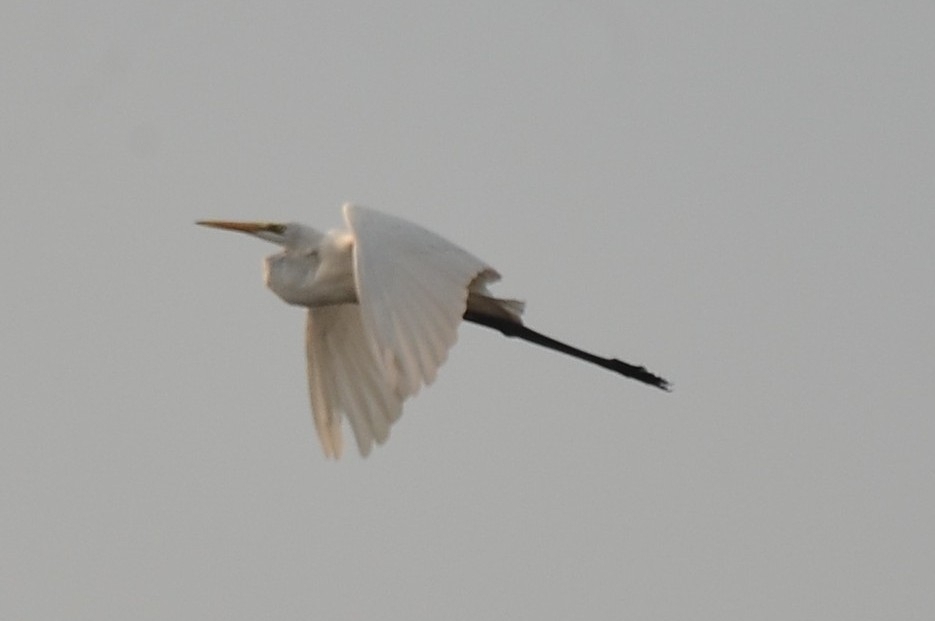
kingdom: Animalia
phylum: Chordata
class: Aves
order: Pelecaniformes
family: Ardeidae
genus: Ardea
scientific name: Ardea alba
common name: Great egret
